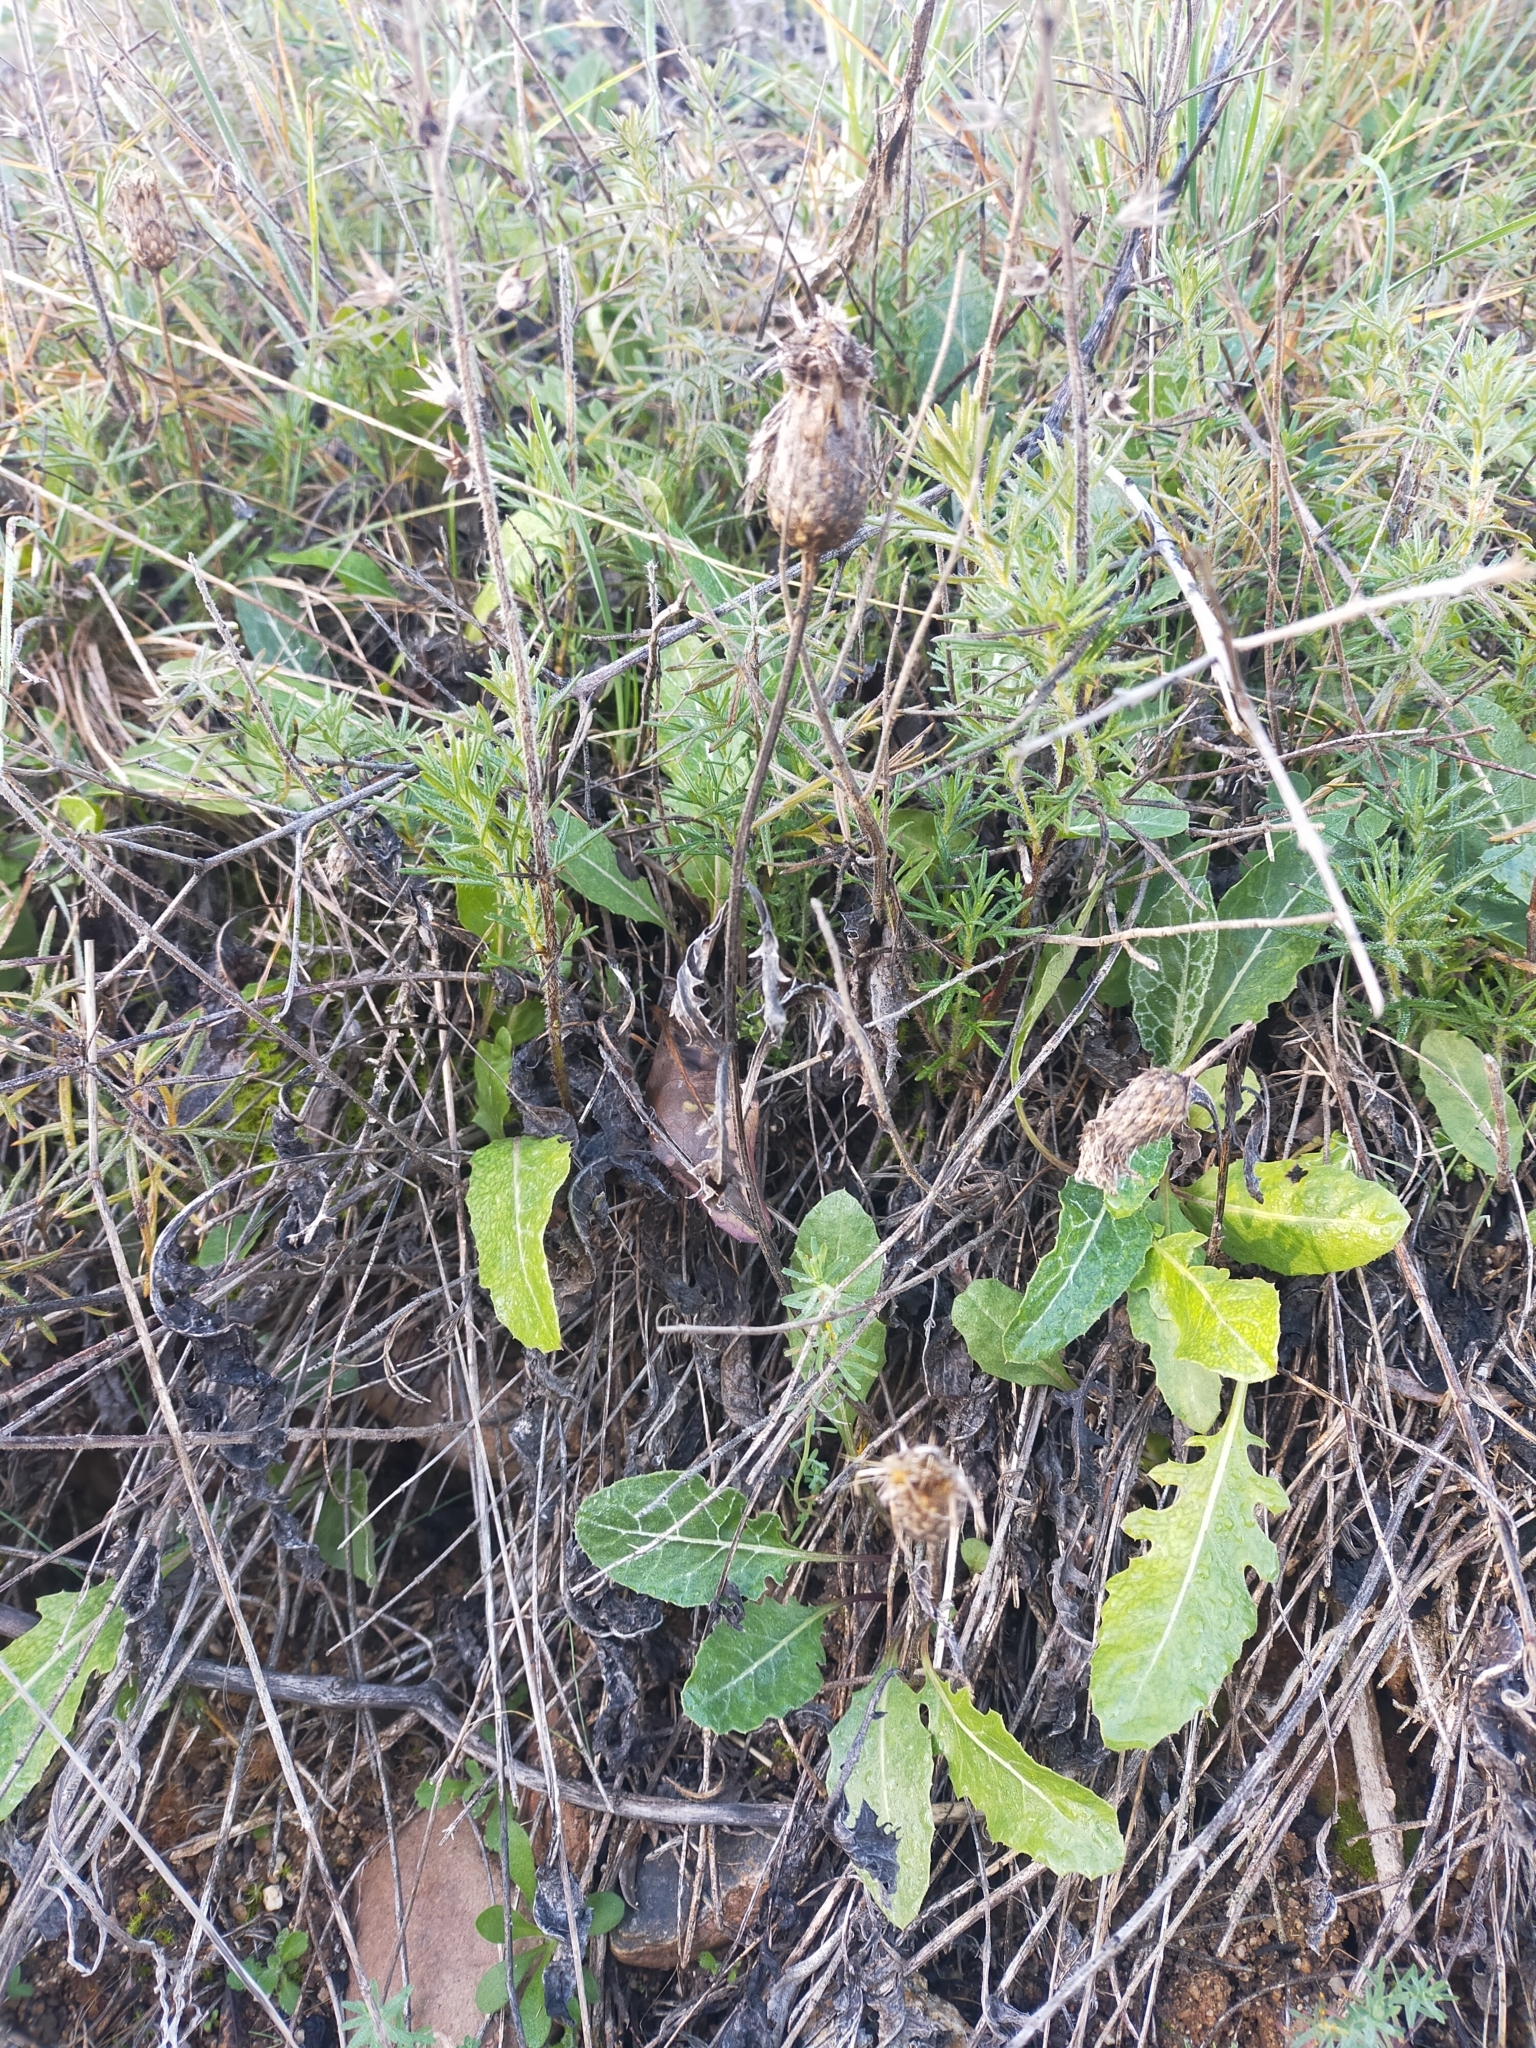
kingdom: Plantae
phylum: Tracheophyta
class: Magnoliopsida
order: Asterales
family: Asteraceae
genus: Klasea
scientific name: Klasea pinnatifida
